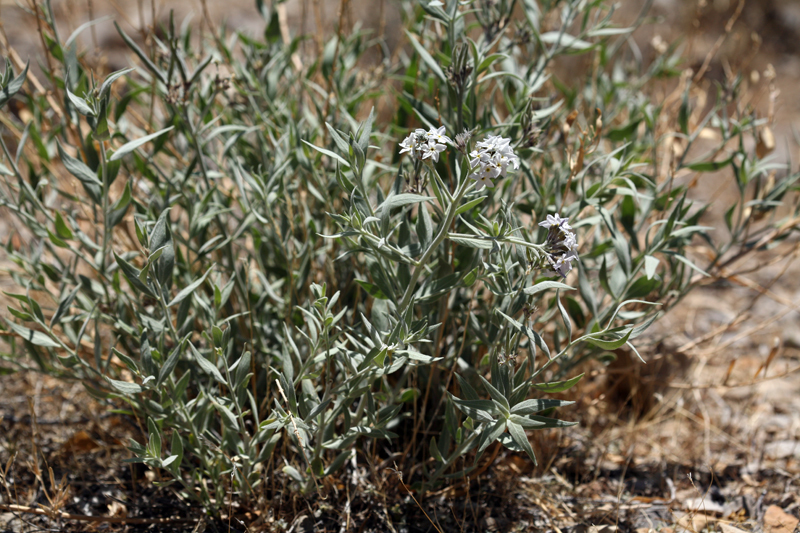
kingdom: Plantae
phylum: Tracheophyta
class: Magnoliopsida
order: Gentianales
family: Apocynaceae
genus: Amsonia
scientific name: Amsonia tomentosa
